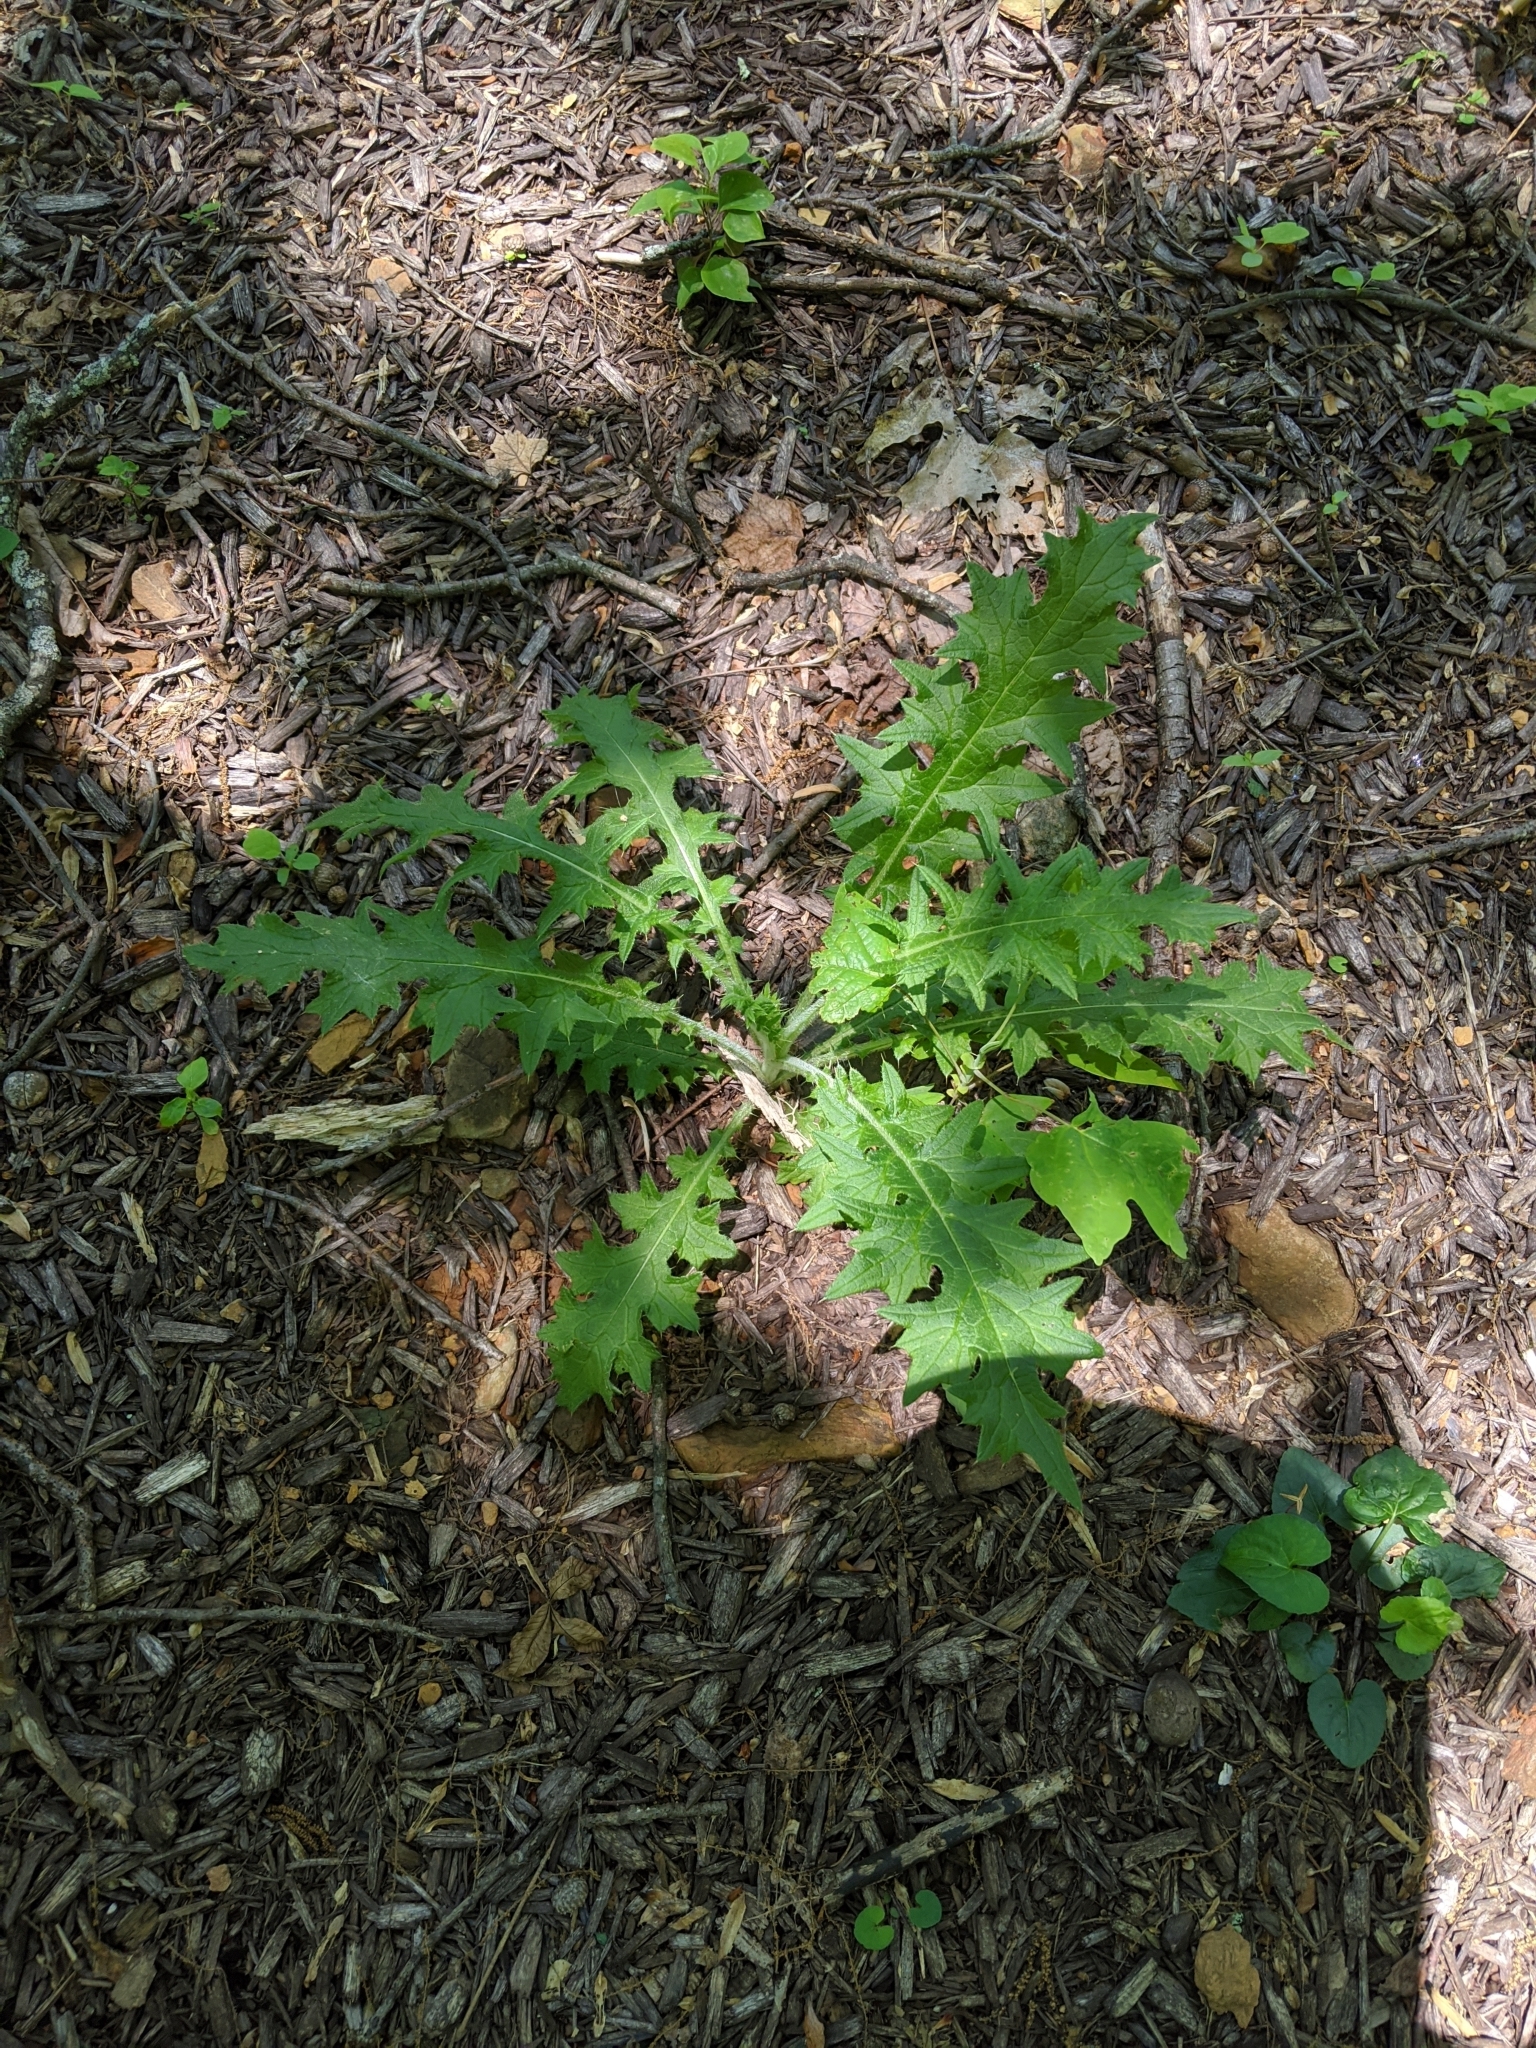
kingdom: Plantae
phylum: Tracheophyta
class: Magnoliopsida
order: Asterales
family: Asteraceae
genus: Cirsium
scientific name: Cirsium vulgare
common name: Bull thistle
